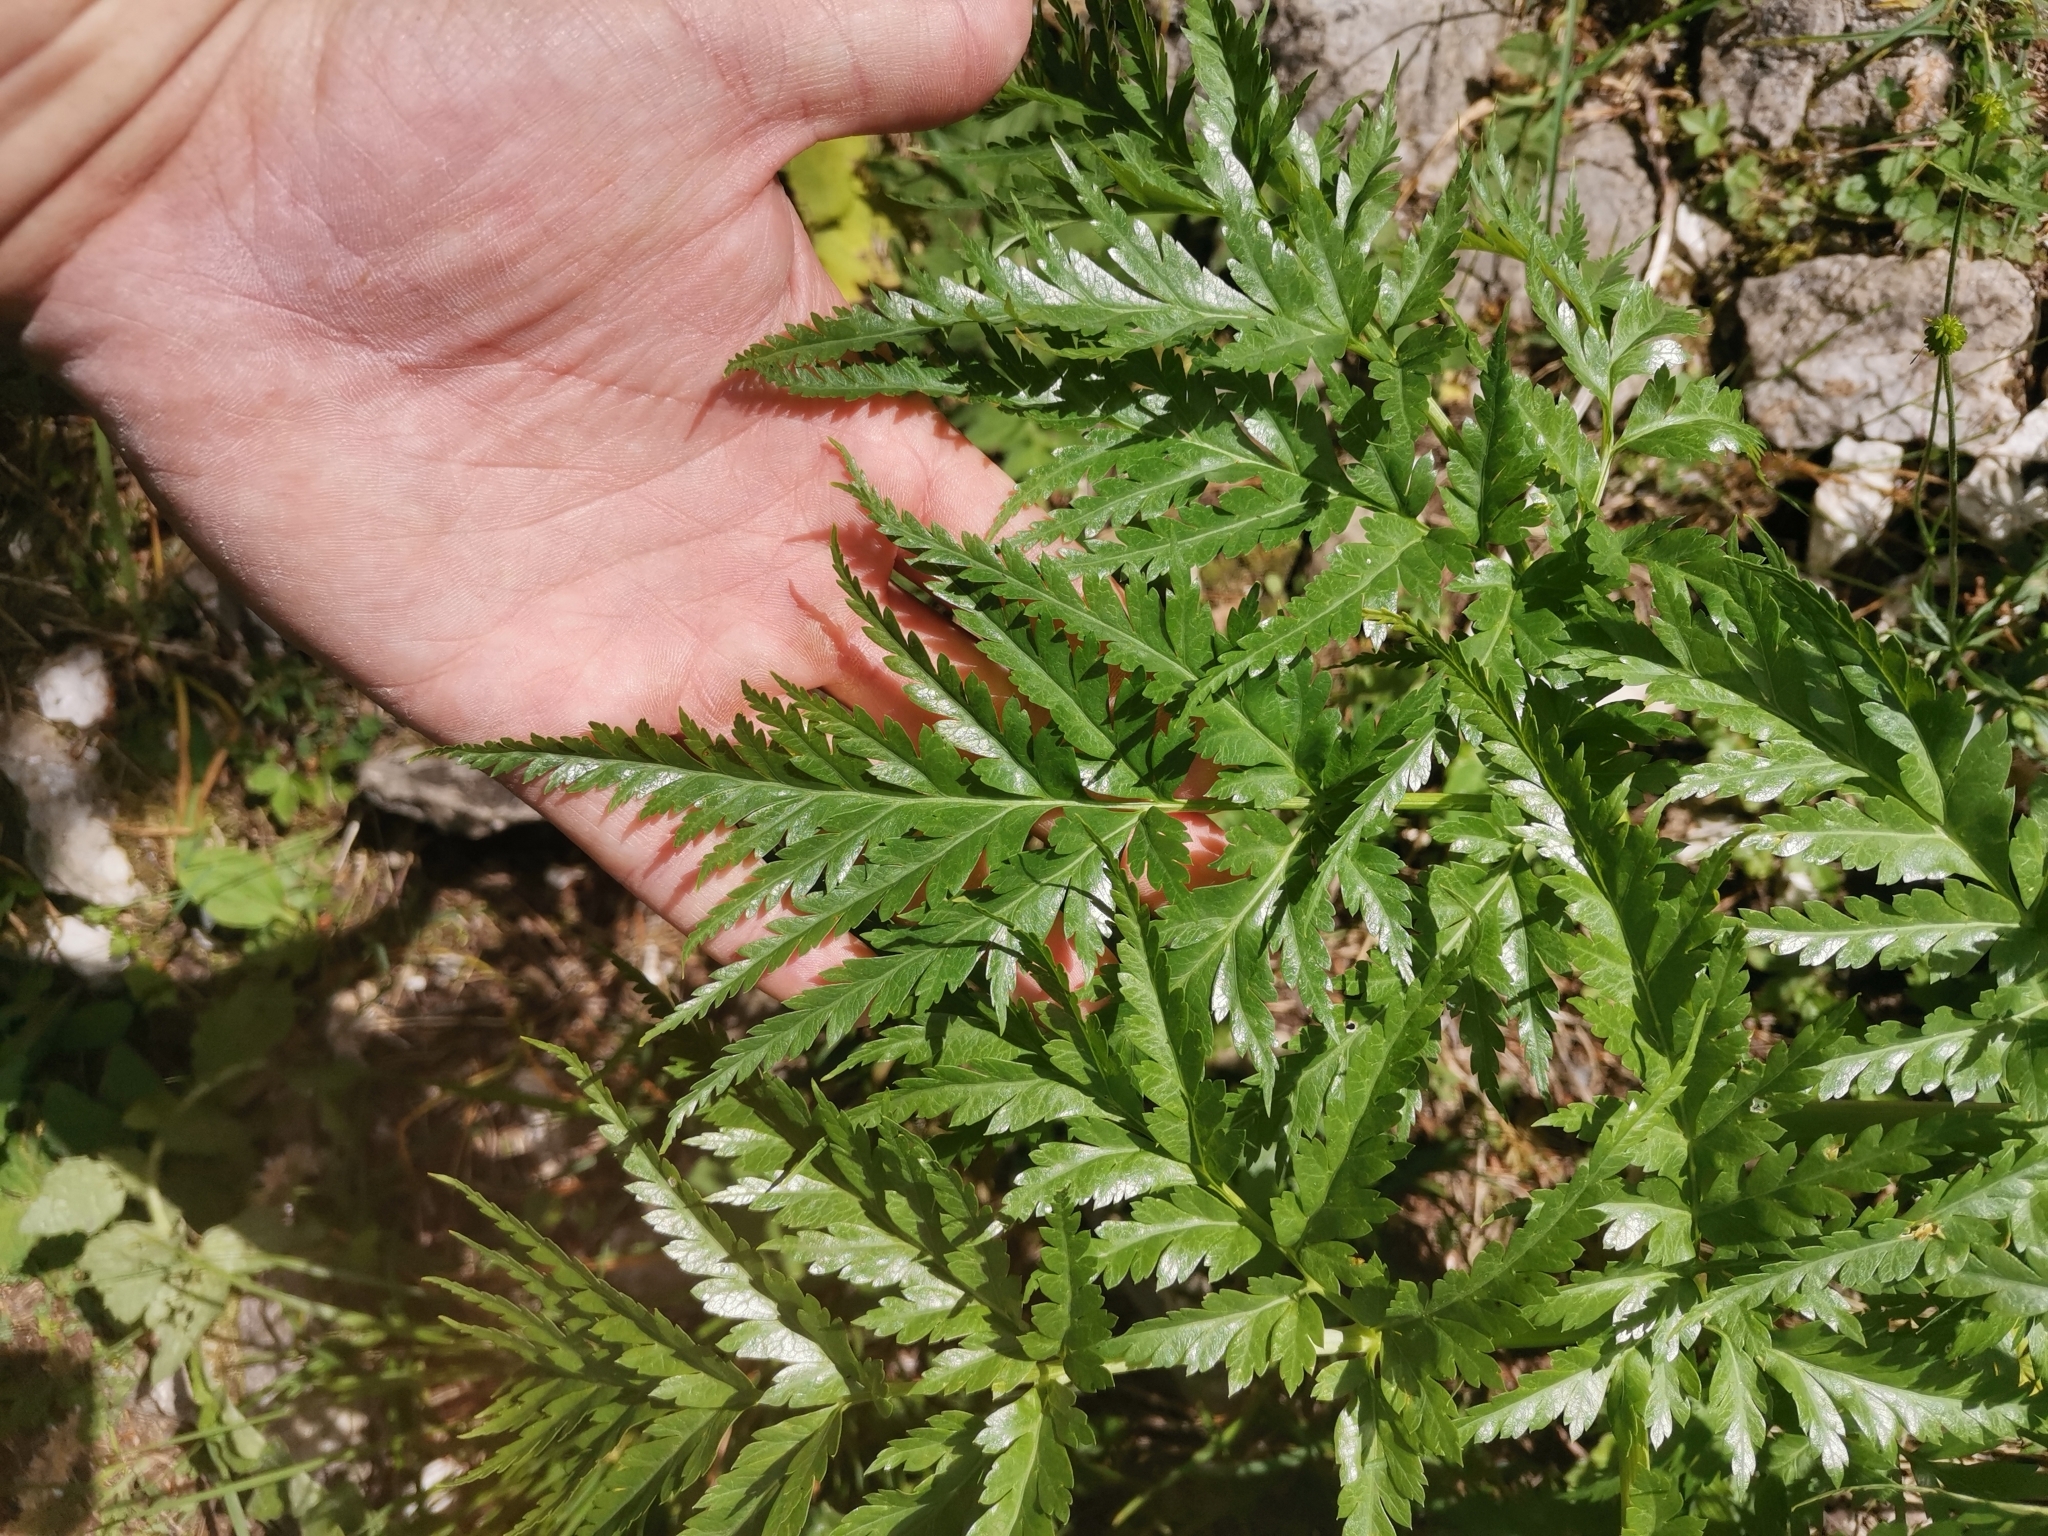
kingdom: Plantae
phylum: Tracheophyta
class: Magnoliopsida
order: Apiales
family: Apiaceae
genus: Molopospermum
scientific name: Molopospermum peloponnesiacum
